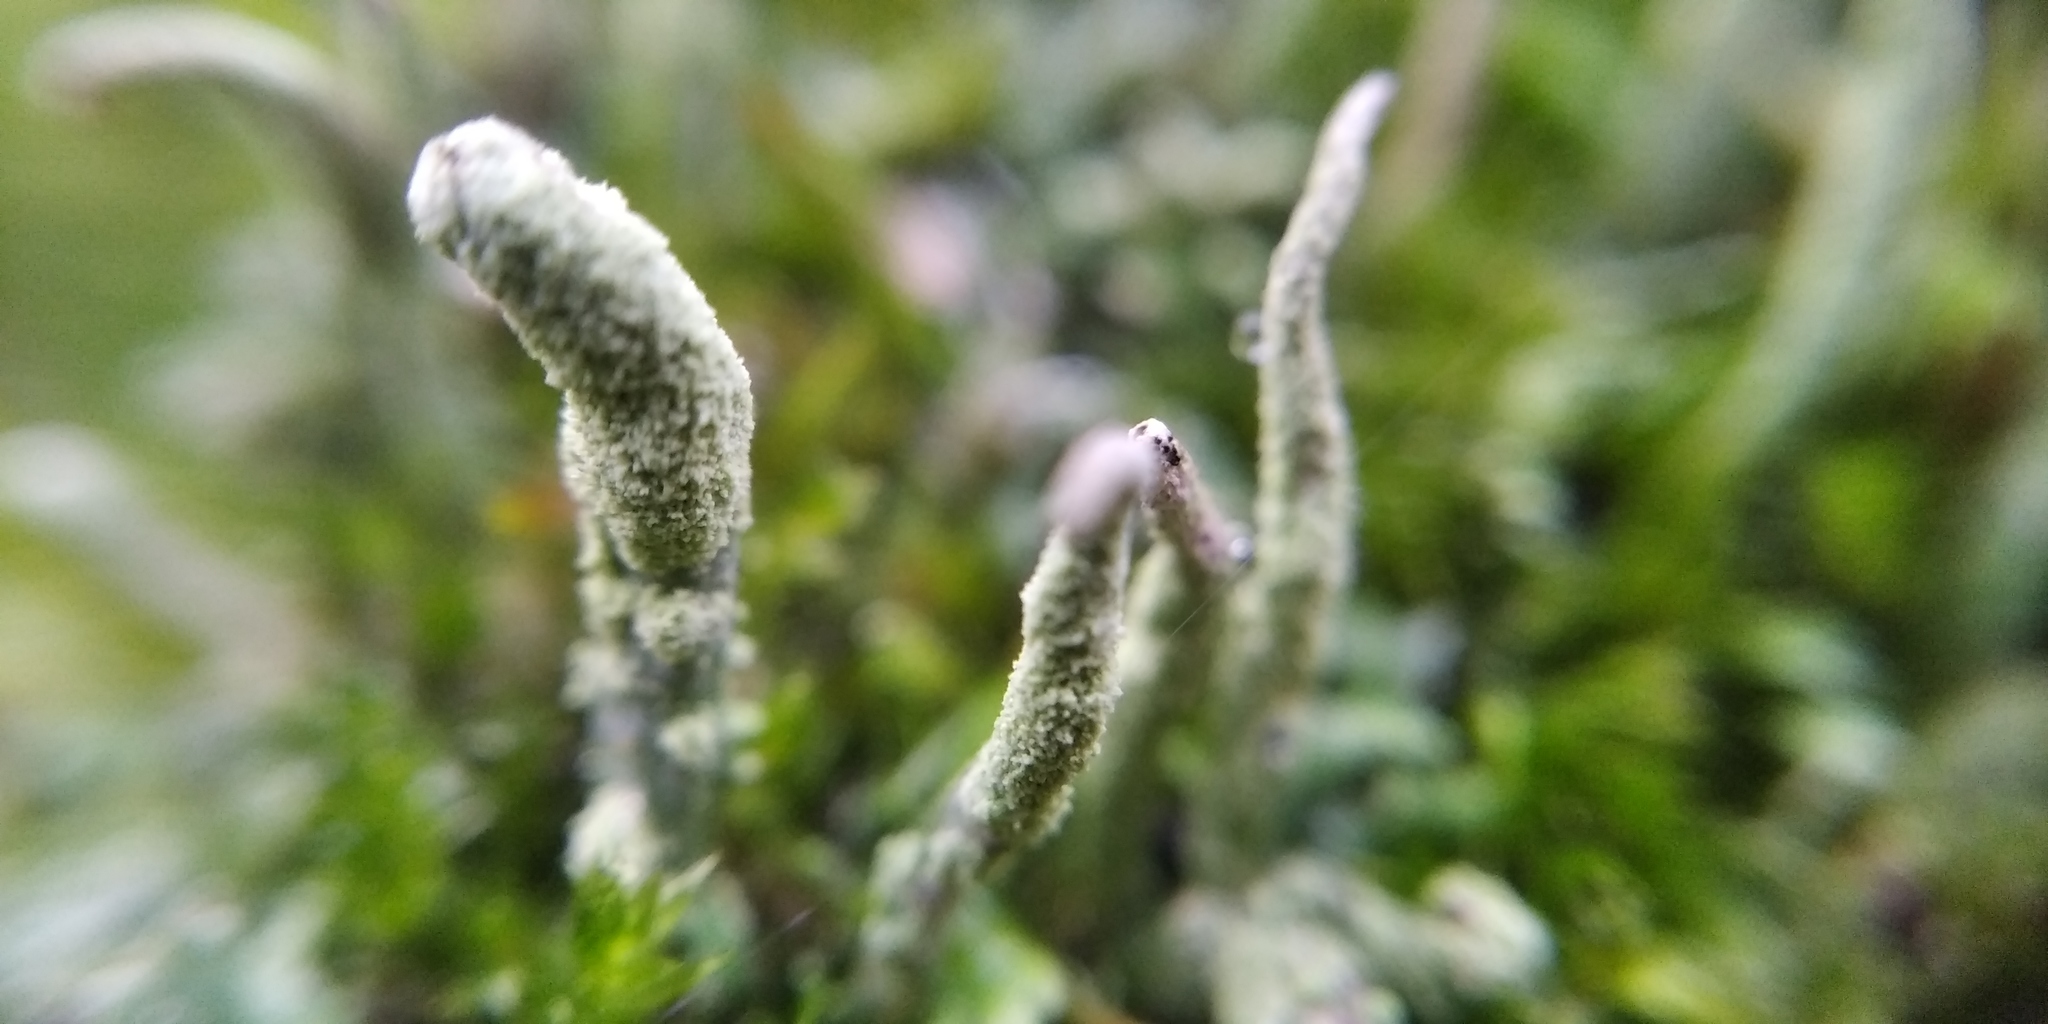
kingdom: Fungi
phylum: Ascomycota
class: Lecanoromycetes
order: Lecanorales
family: Cladoniaceae
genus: Cladonia
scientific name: Cladonia coniocraea
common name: Common powderhorn
